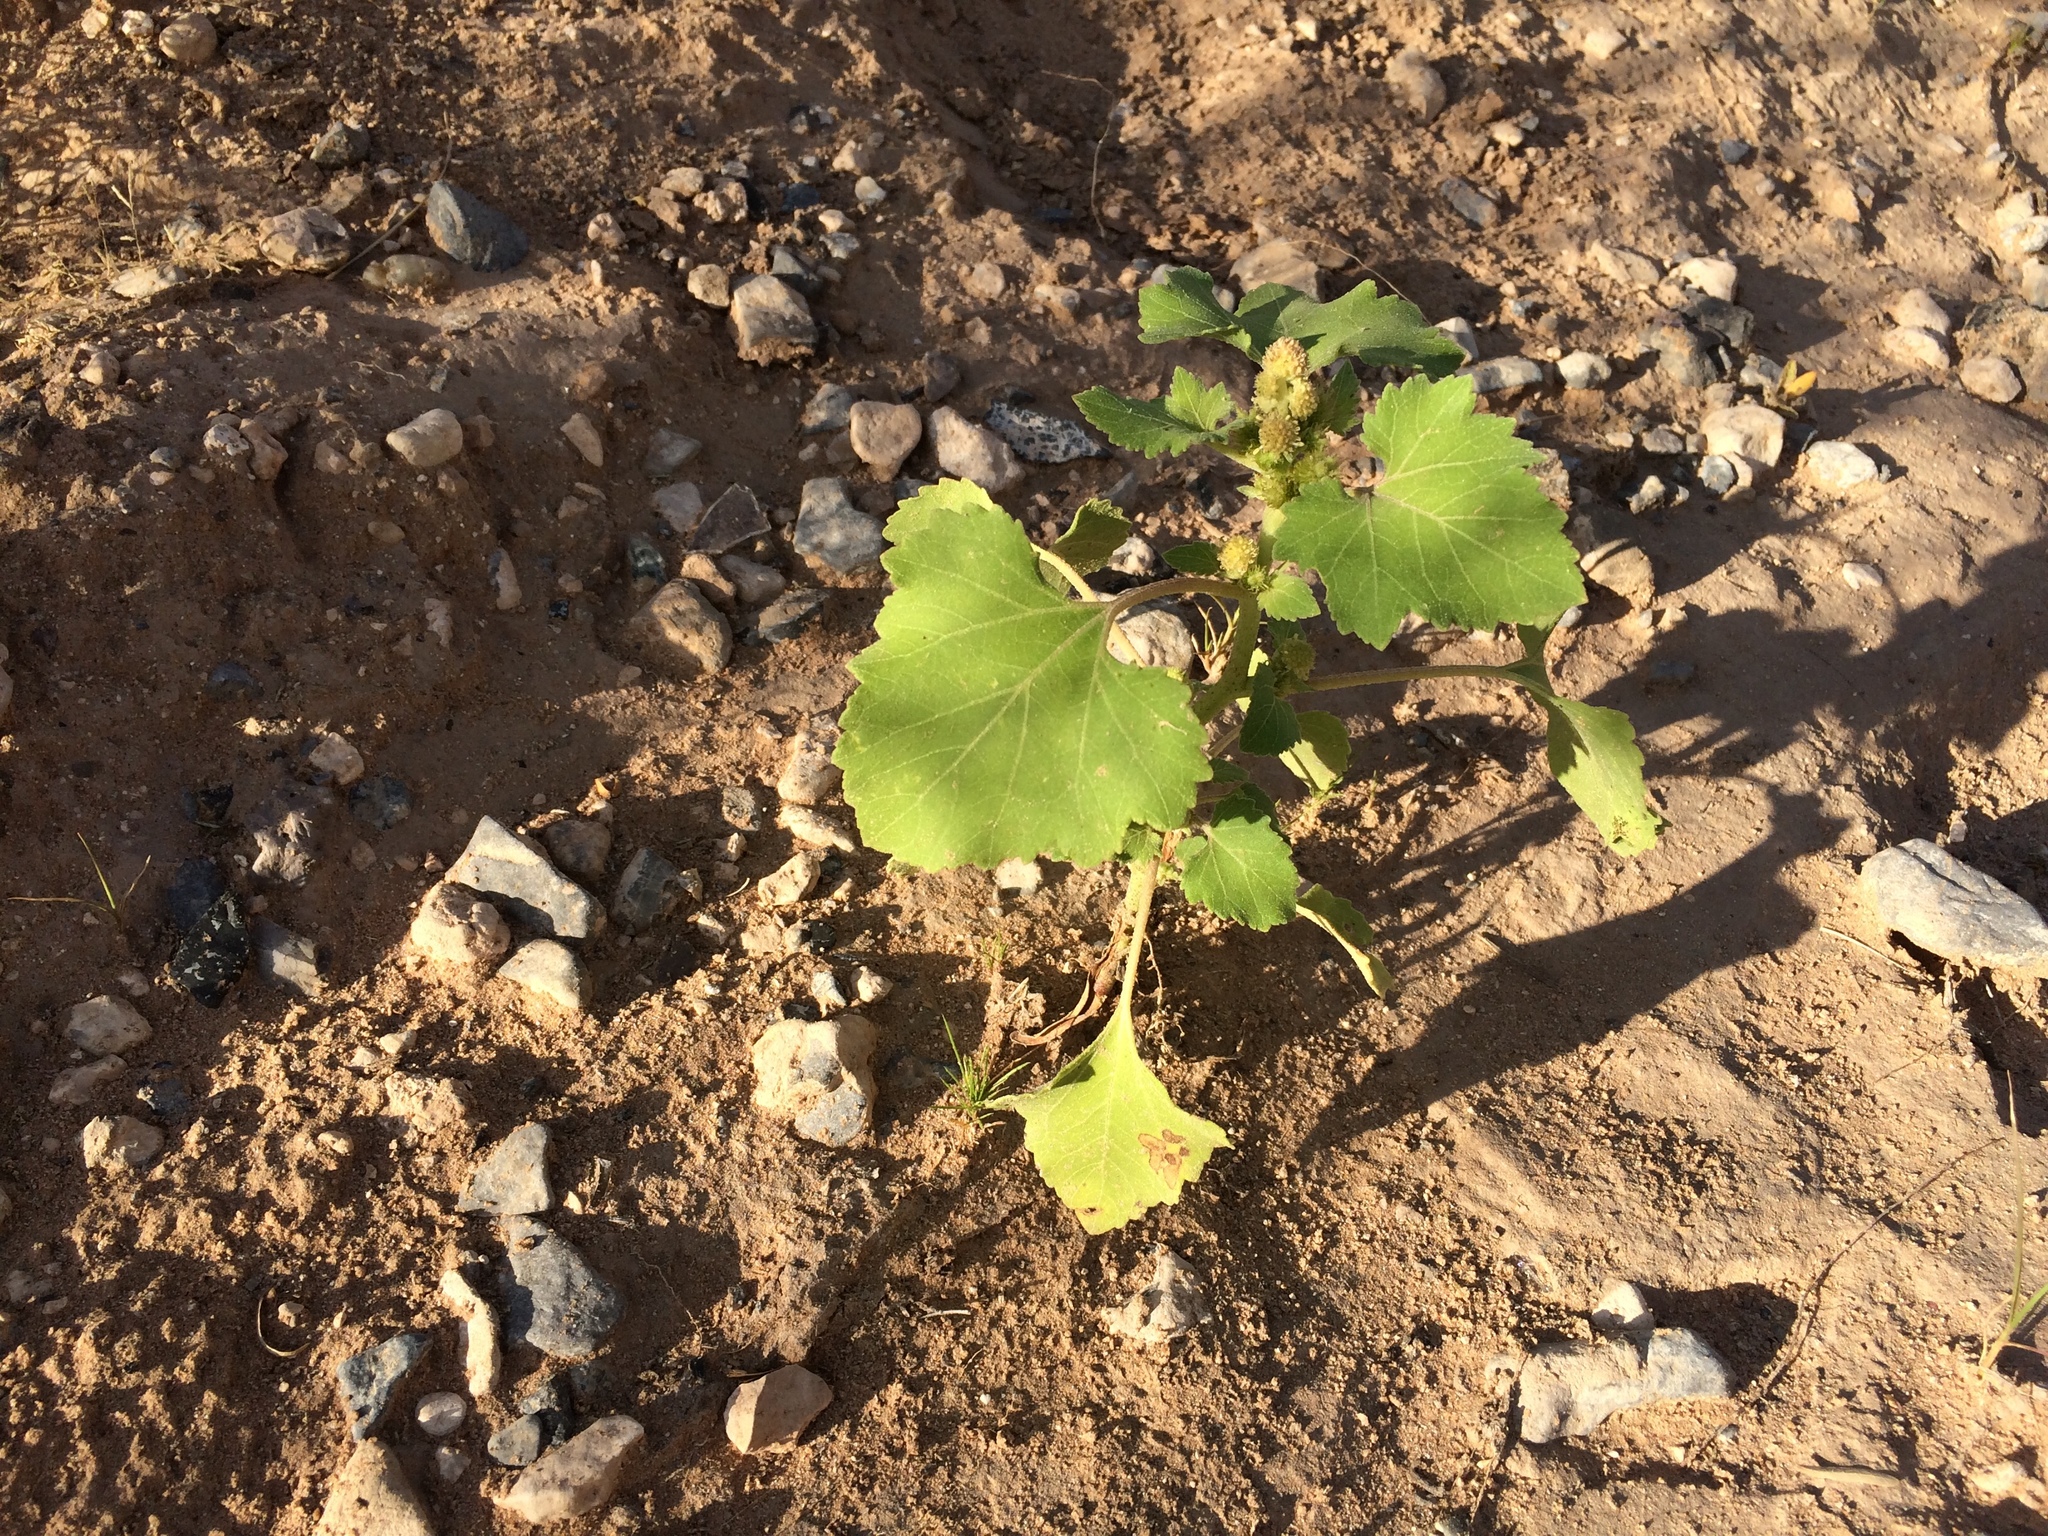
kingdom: Plantae
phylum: Tracheophyta
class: Magnoliopsida
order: Asterales
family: Asteraceae
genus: Xanthium
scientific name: Xanthium strumarium
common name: Rough cocklebur
